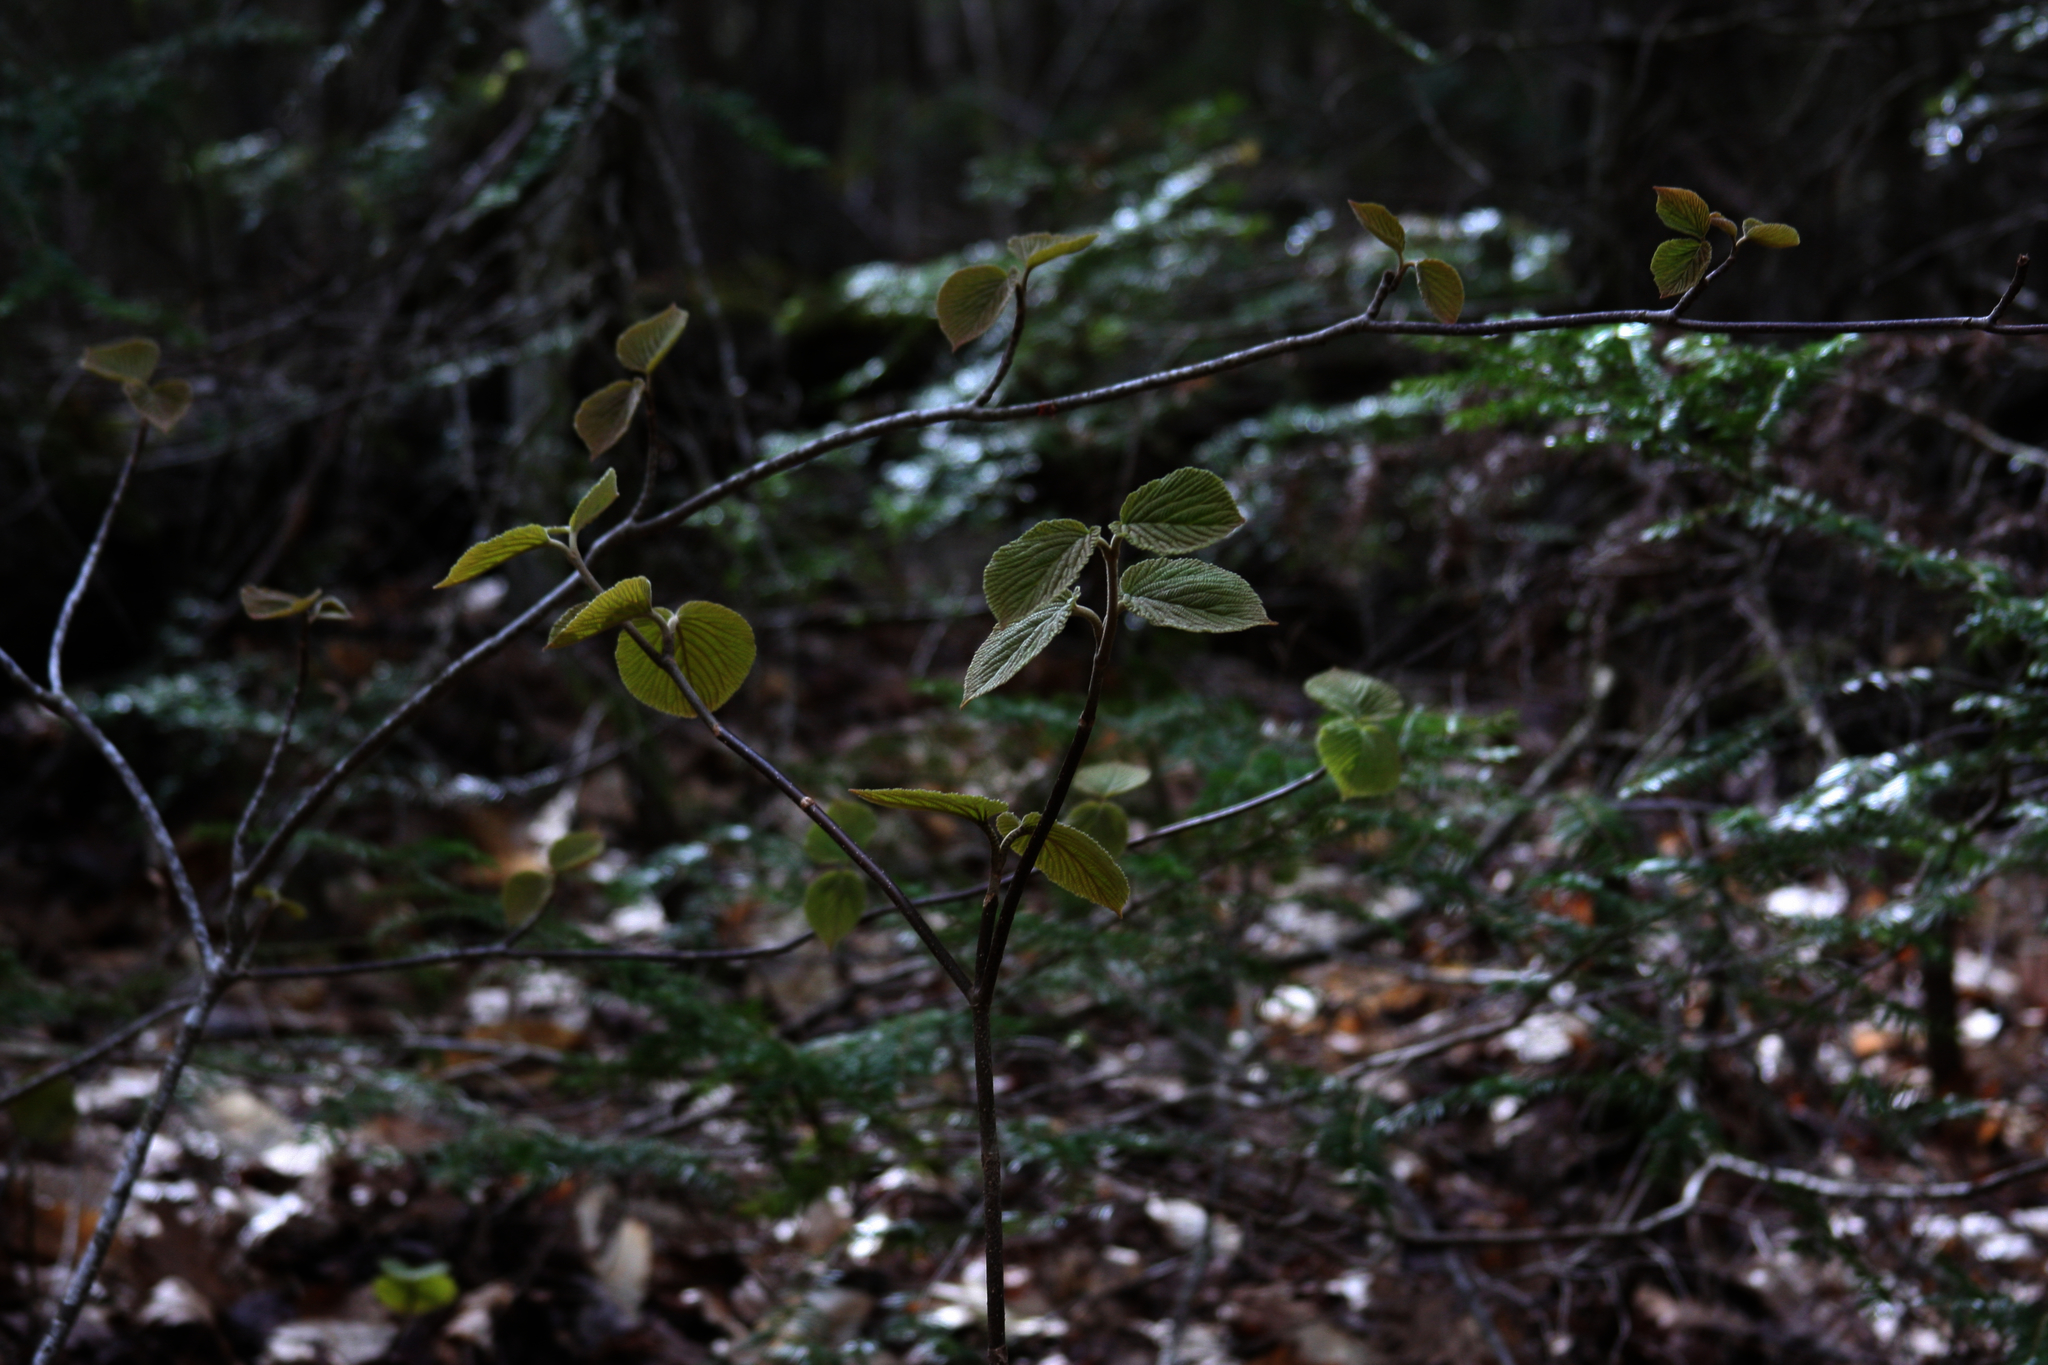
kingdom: Plantae
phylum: Tracheophyta
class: Magnoliopsida
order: Dipsacales
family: Viburnaceae
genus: Viburnum
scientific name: Viburnum lantanoides
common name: Hobblebush
